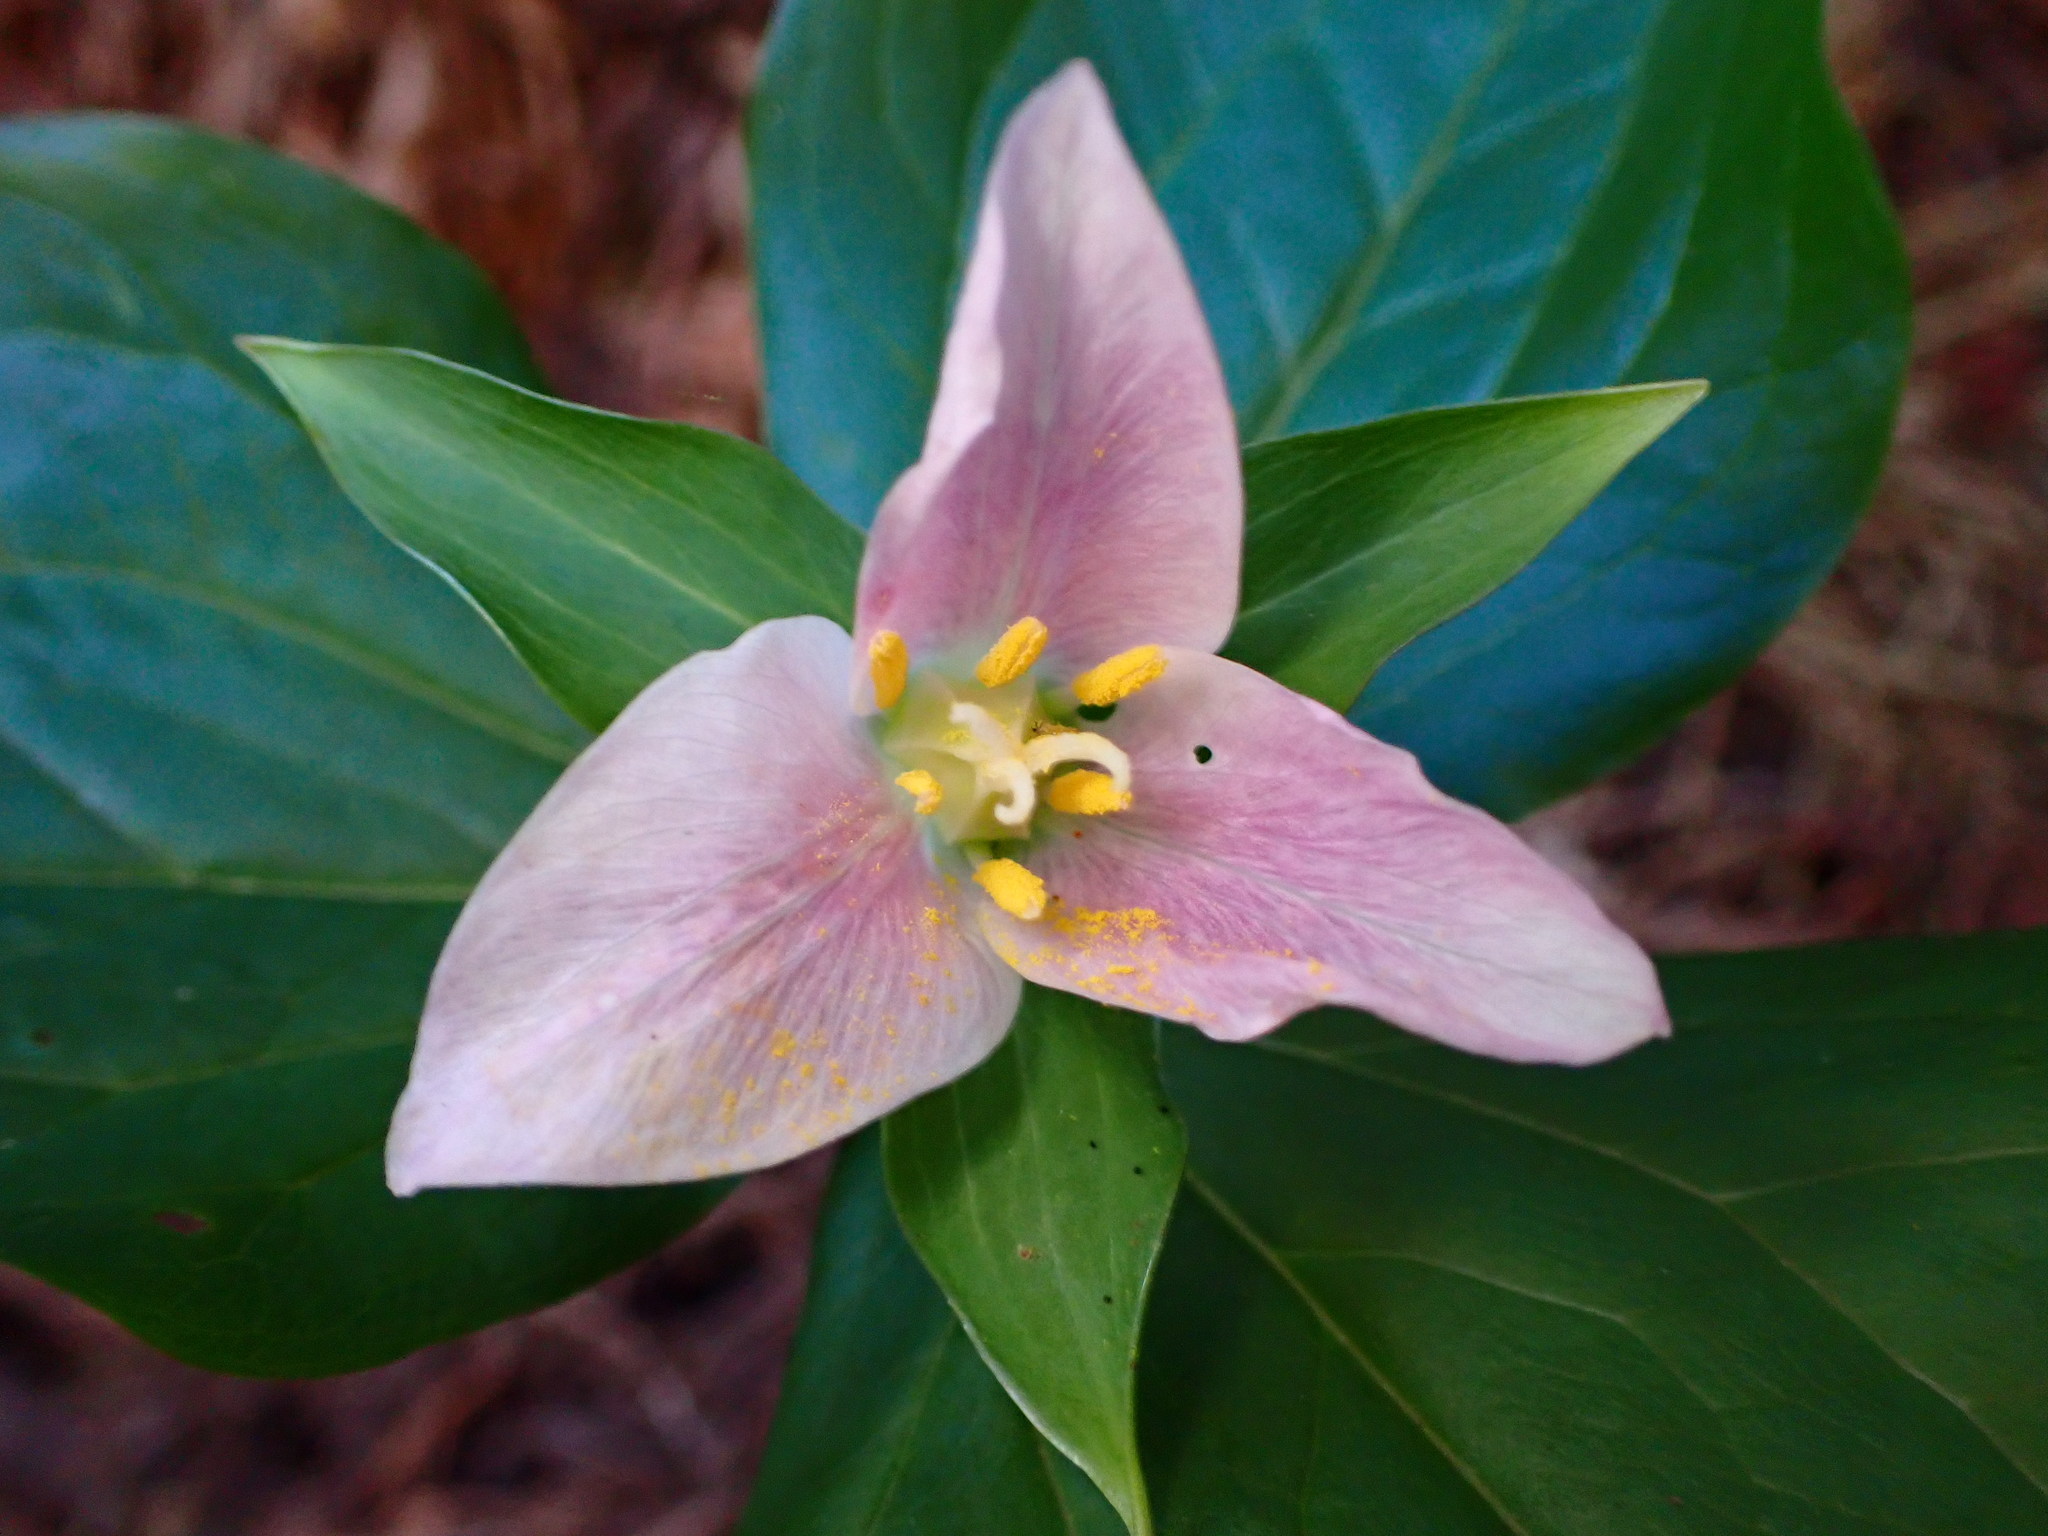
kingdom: Plantae
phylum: Tracheophyta
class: Liliopsida
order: Liliales
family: Melanthiaceae
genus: Trillium
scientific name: Trillium ovatum
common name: Pacific trillium
